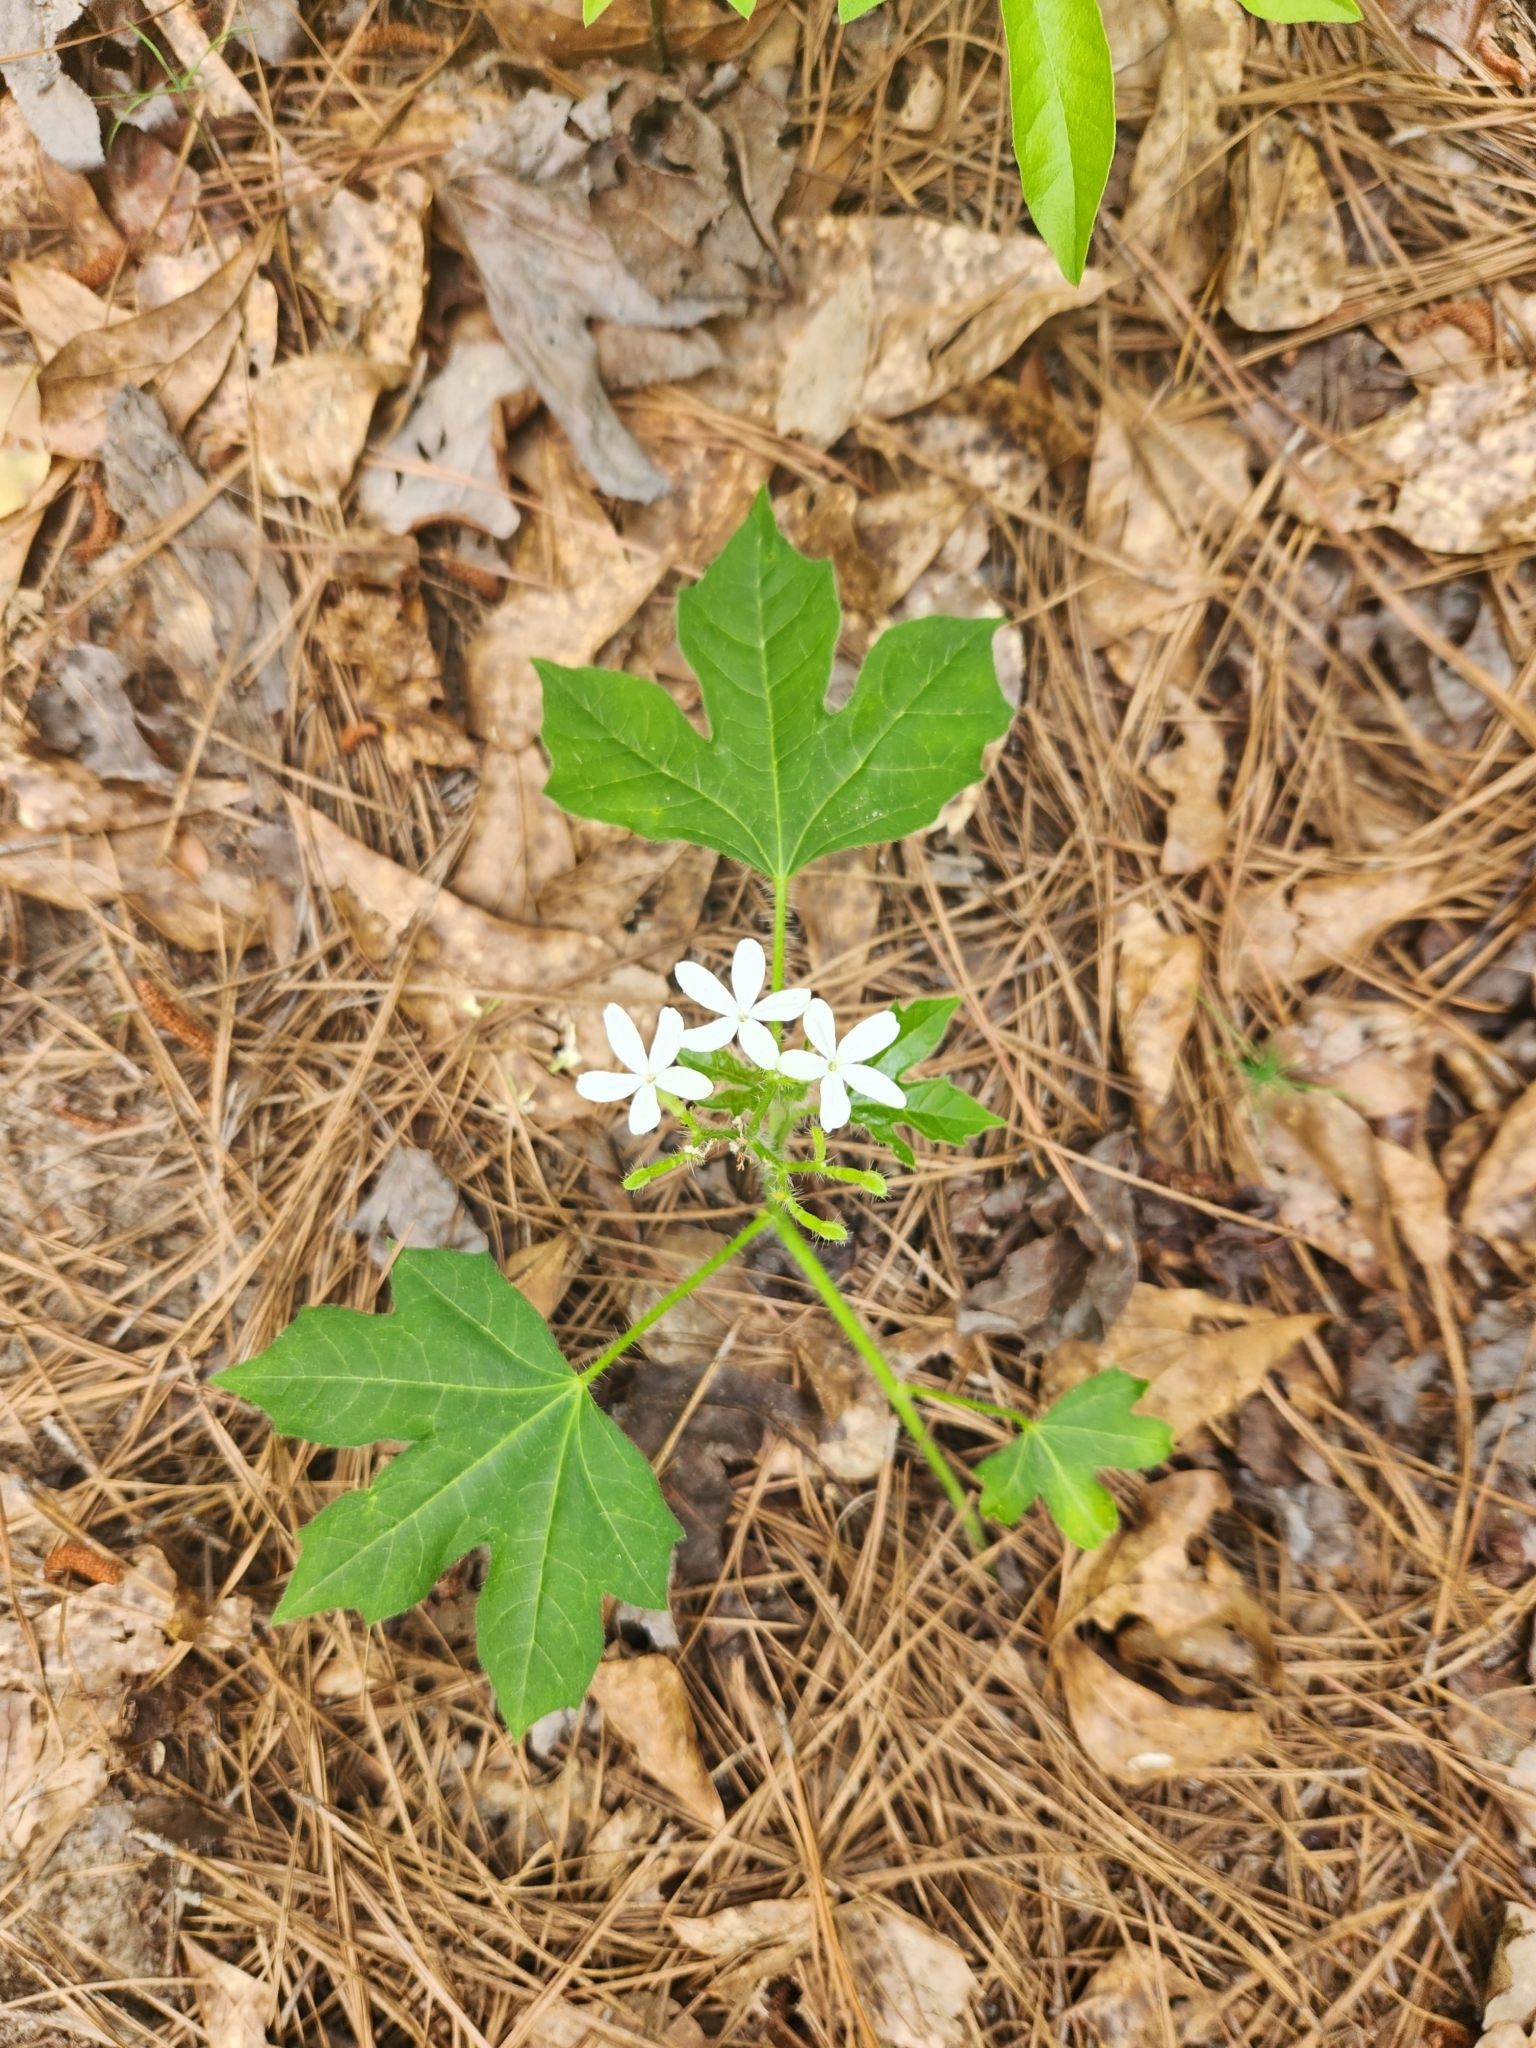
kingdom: Plantae
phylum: Tracheophyta
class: Magnoliopsida
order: Malpighiales
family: Euphorbiaceae
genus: Cnidoscolus
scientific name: Cnidoscolus stimulosus
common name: Bull-nettle
